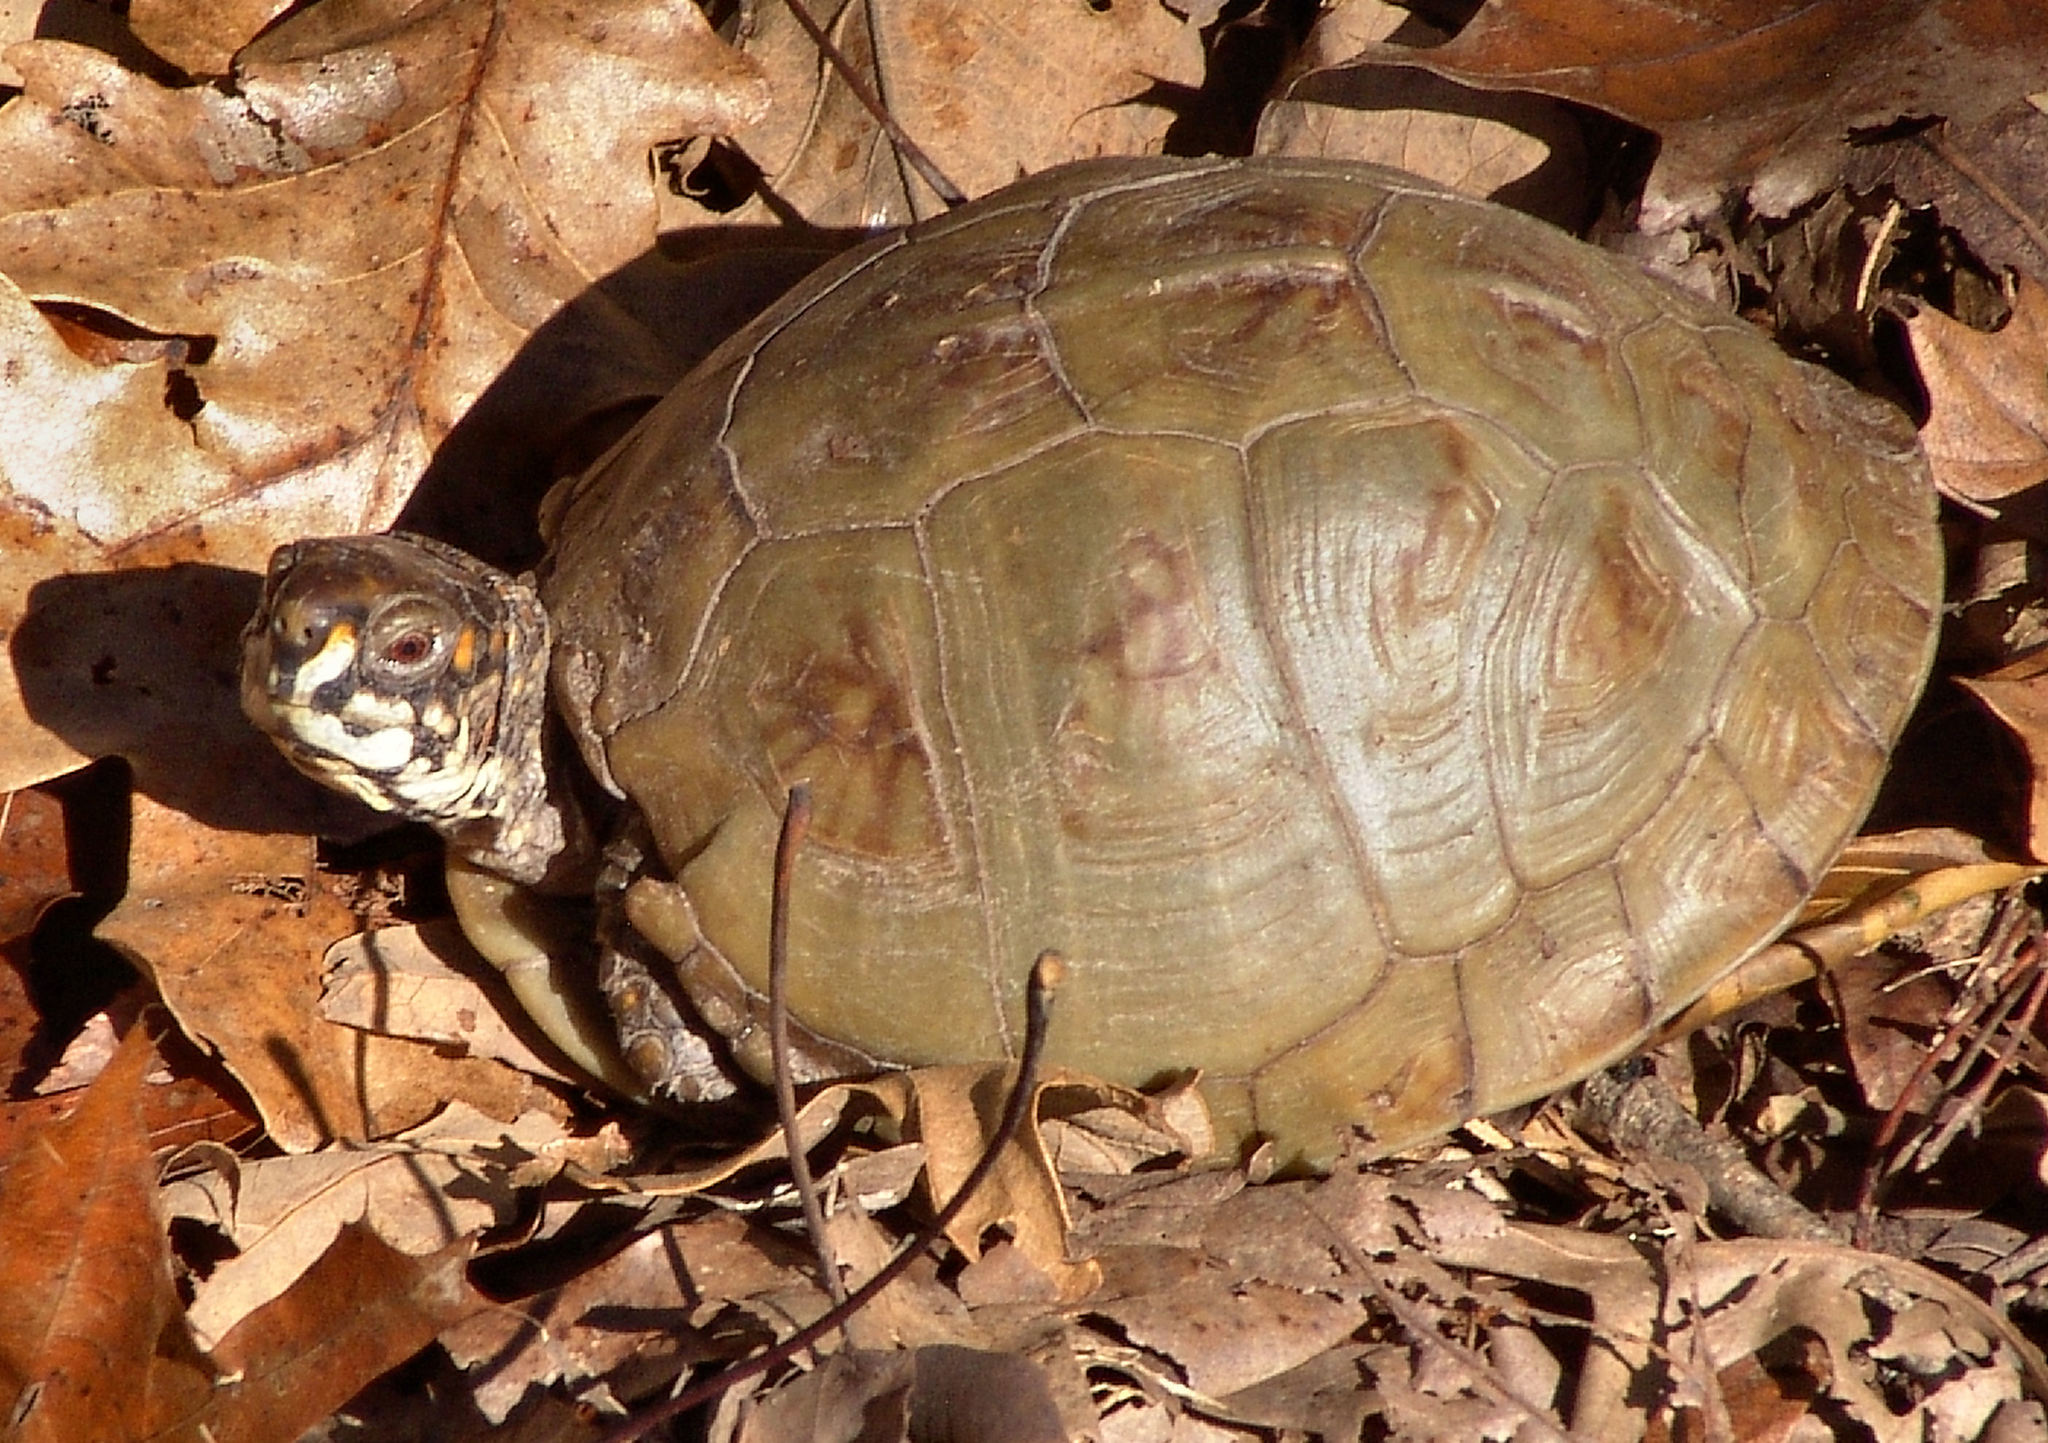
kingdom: Animalia
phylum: Chordata
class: Testudines
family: Emydidae
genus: Terrapene
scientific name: Terrapene carolina
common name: Common box turtle
